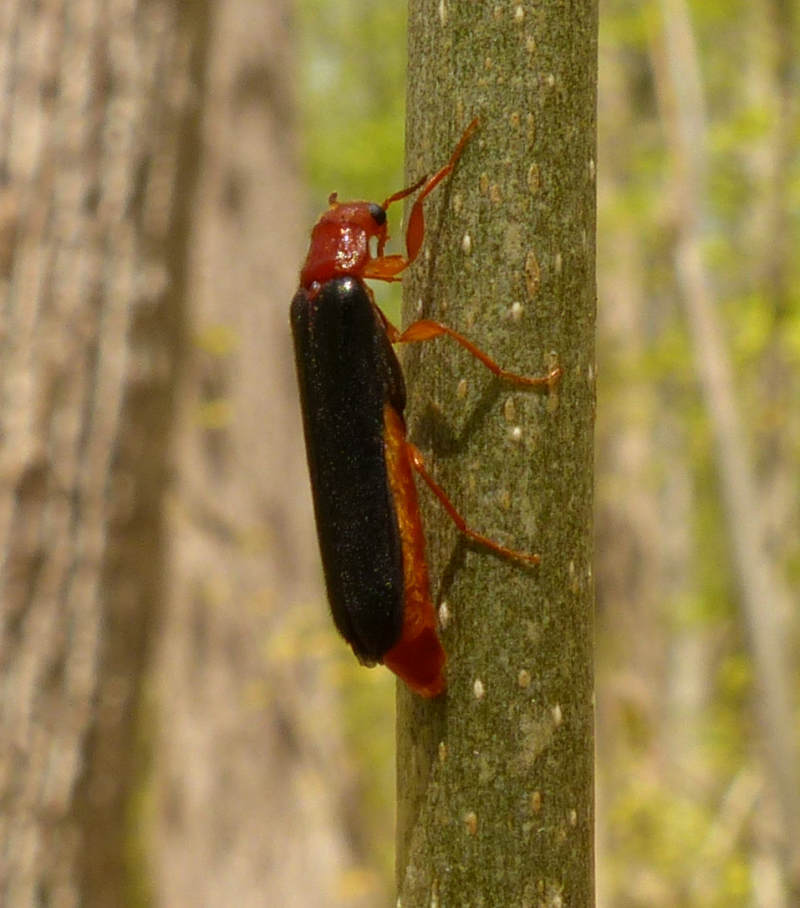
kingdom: Animalia
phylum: Arthropoda
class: Insecta
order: Coleoptera
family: Lymexylidae
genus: Elateroides
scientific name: Elateroides lugubris
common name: Sapwood timberworm
